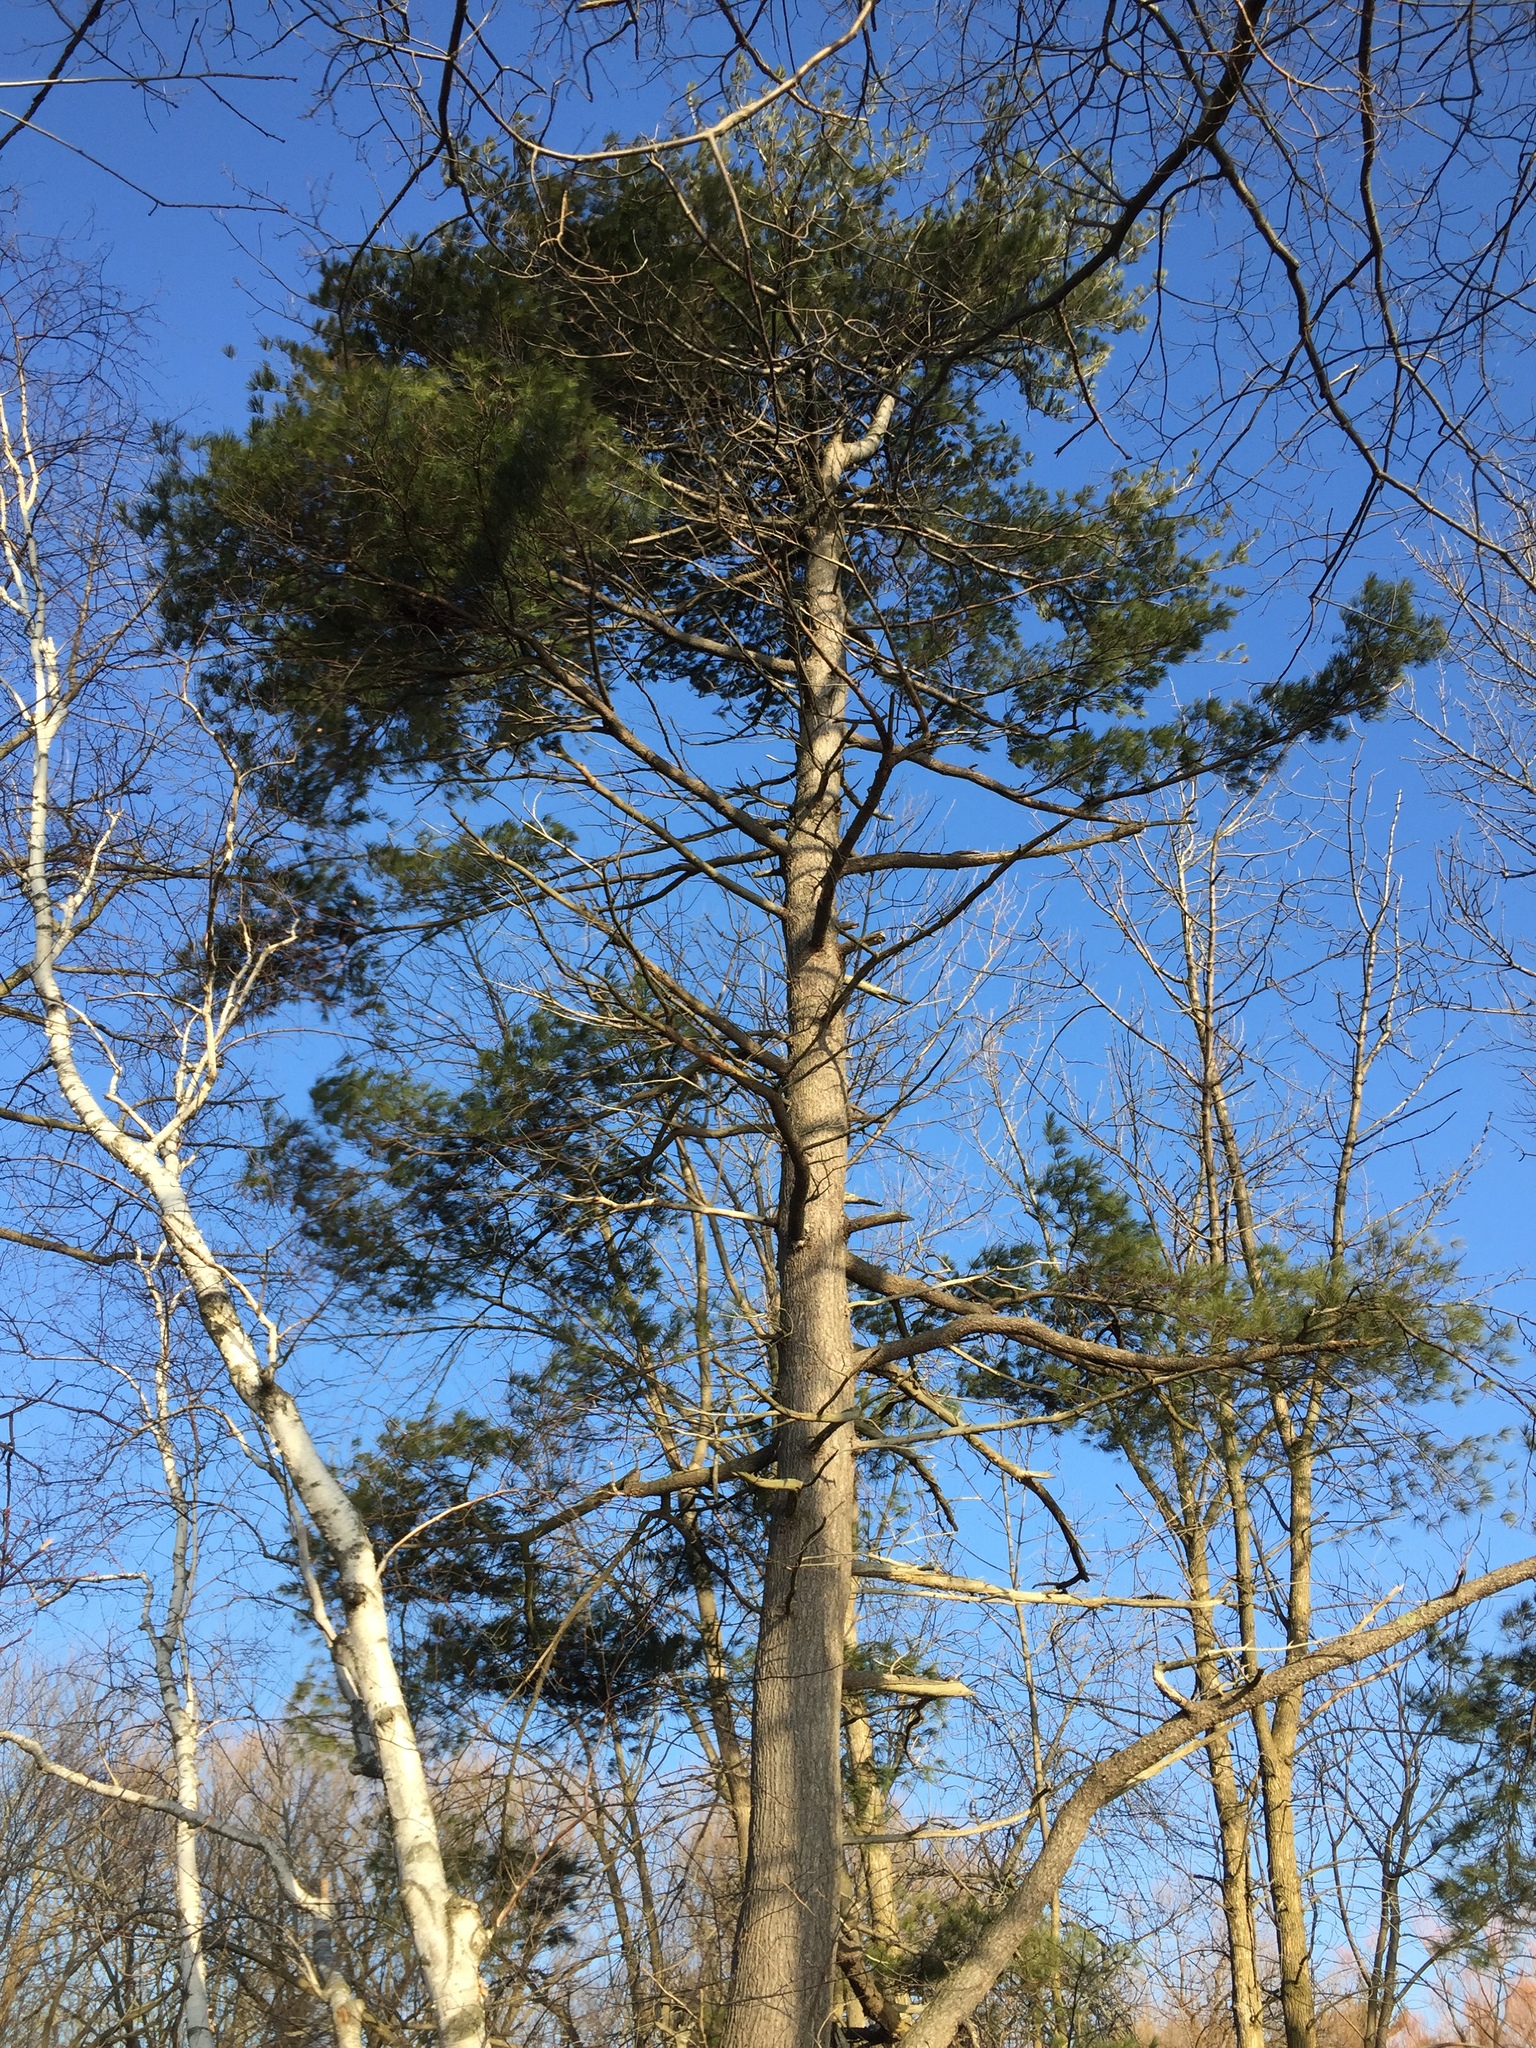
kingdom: Plantae
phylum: Tracheophyta
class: Pinopsida
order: Pinales
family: Pinaceae
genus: Pinus
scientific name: Pinus strobus
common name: Weymouth pine
